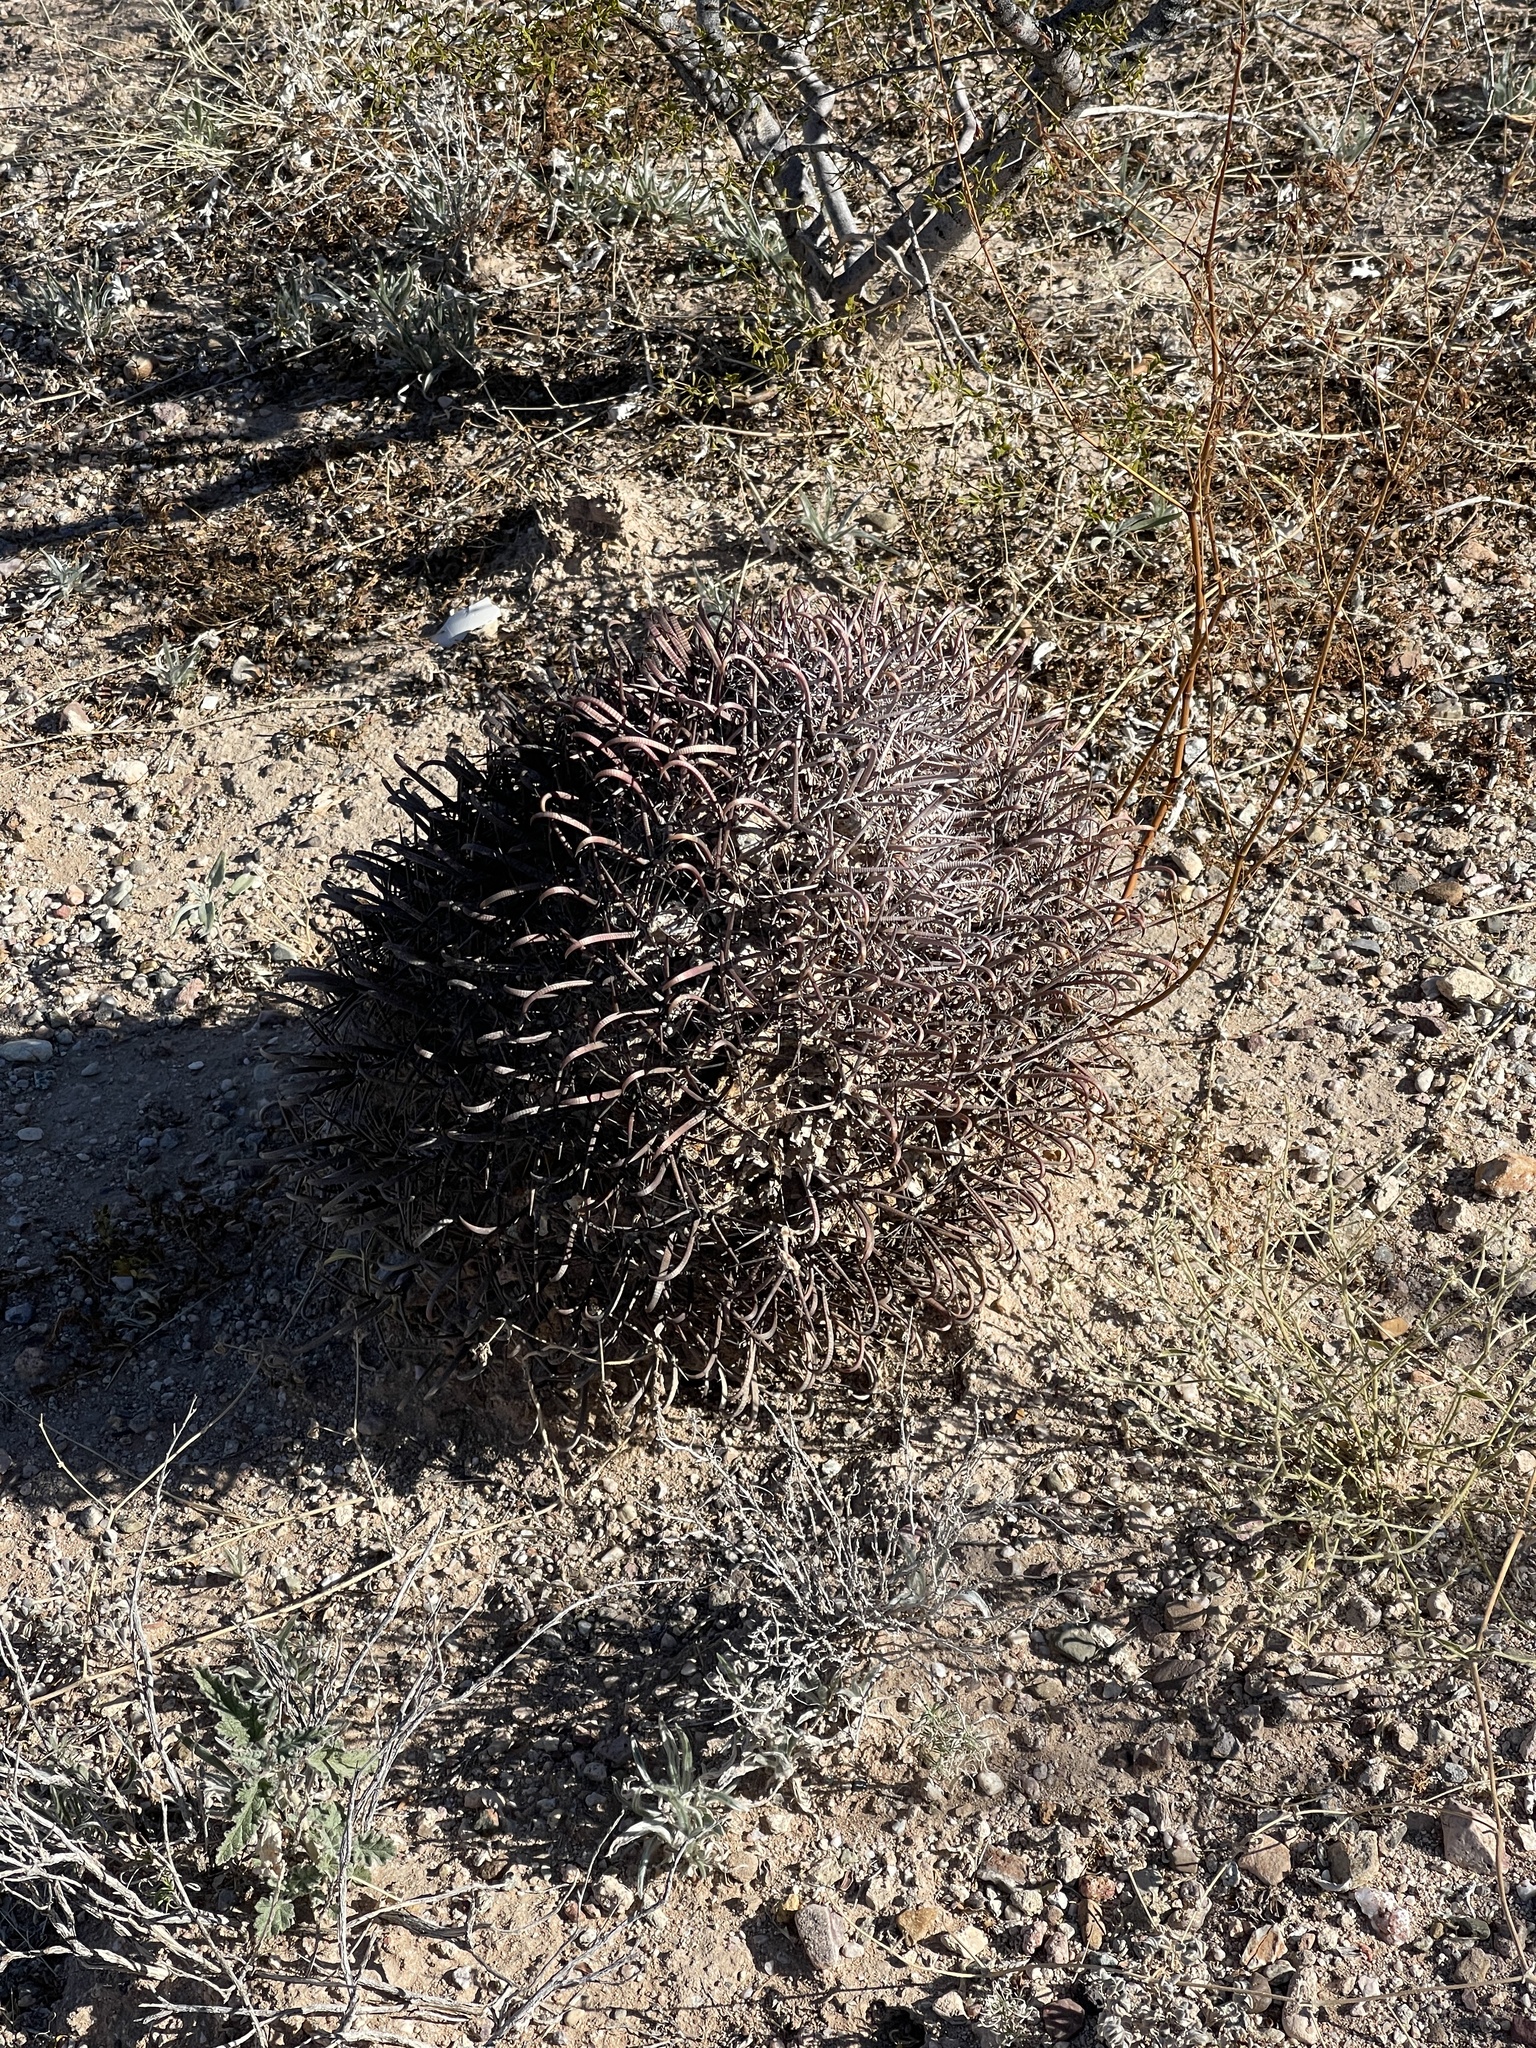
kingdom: Plantae
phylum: Tracheophyta
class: Magnoliopsida
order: Caryophyllales
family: Cactaceae
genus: Ferocactus
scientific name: Ferocactus wislizeni
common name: Candy barrel cactus
